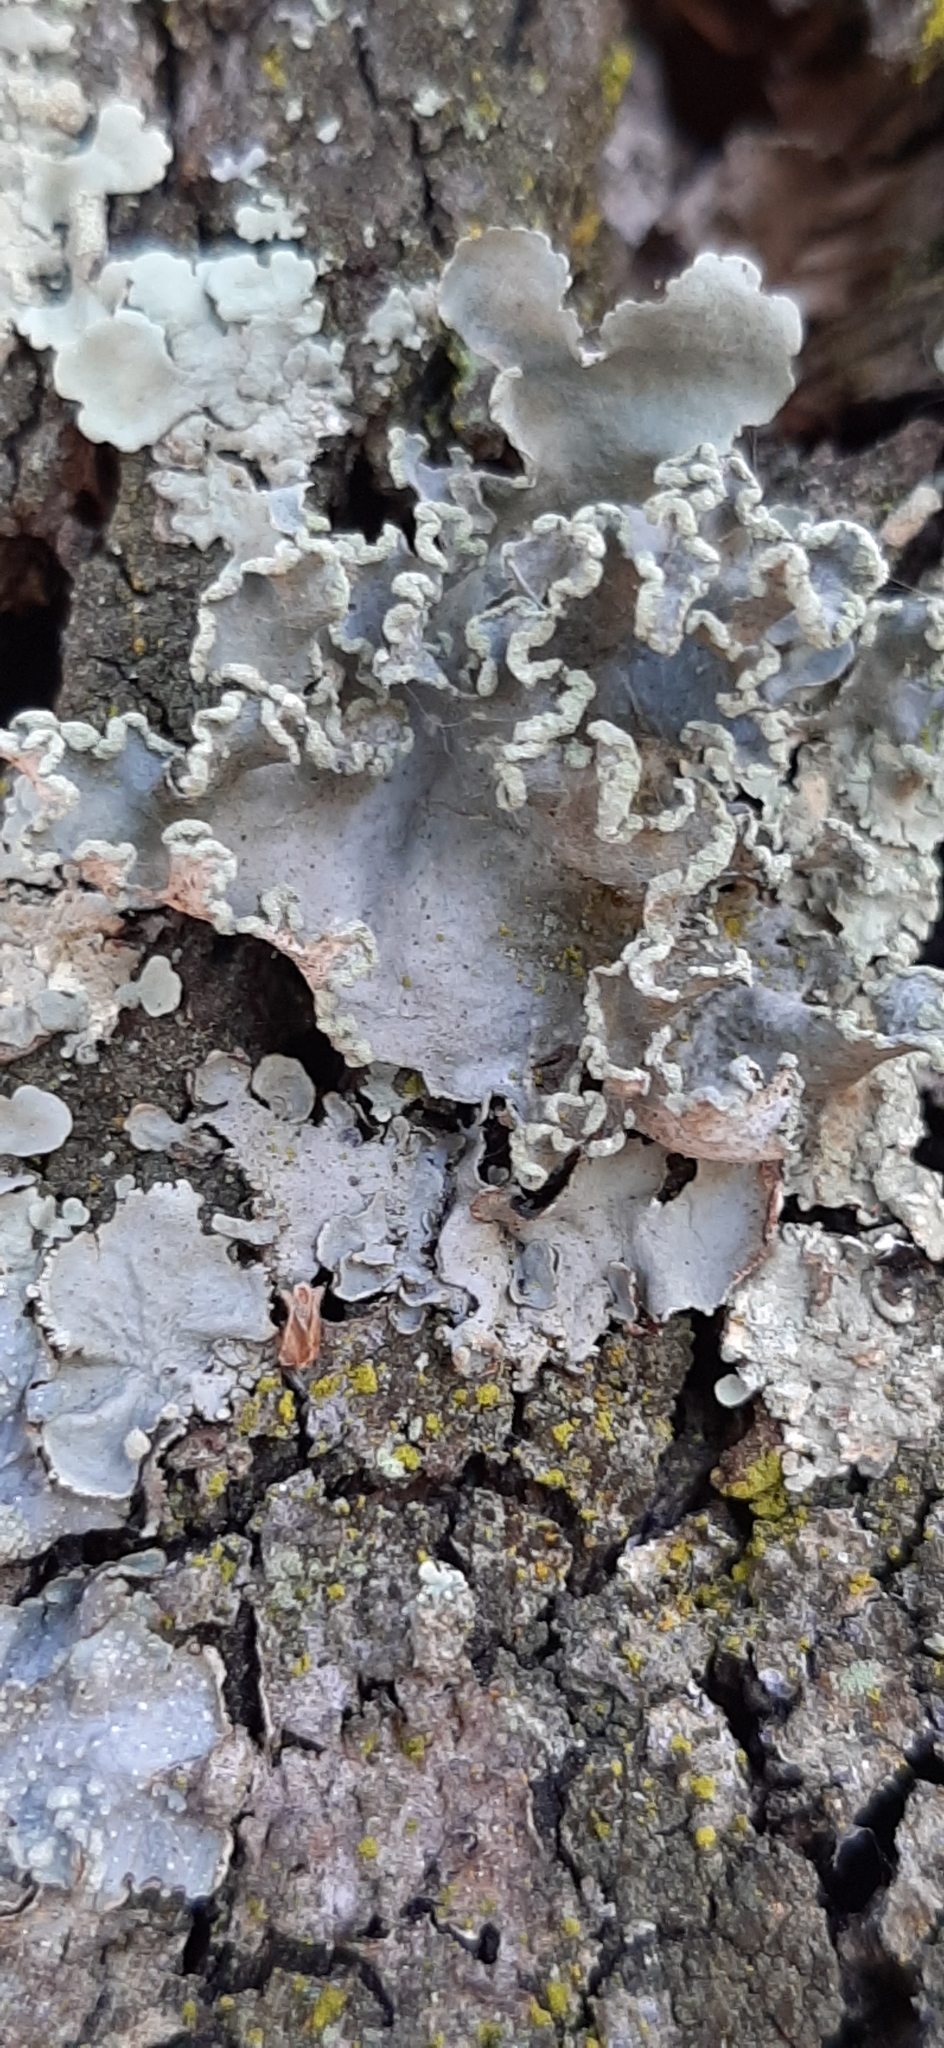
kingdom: Fungi
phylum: Ascomycota
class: Lecanoromycetes
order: Lecanorales
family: Parmeliaceae
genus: Parmotrema
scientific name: Parmotrema hypoleucinum
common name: Lacy powdered-ruffle
